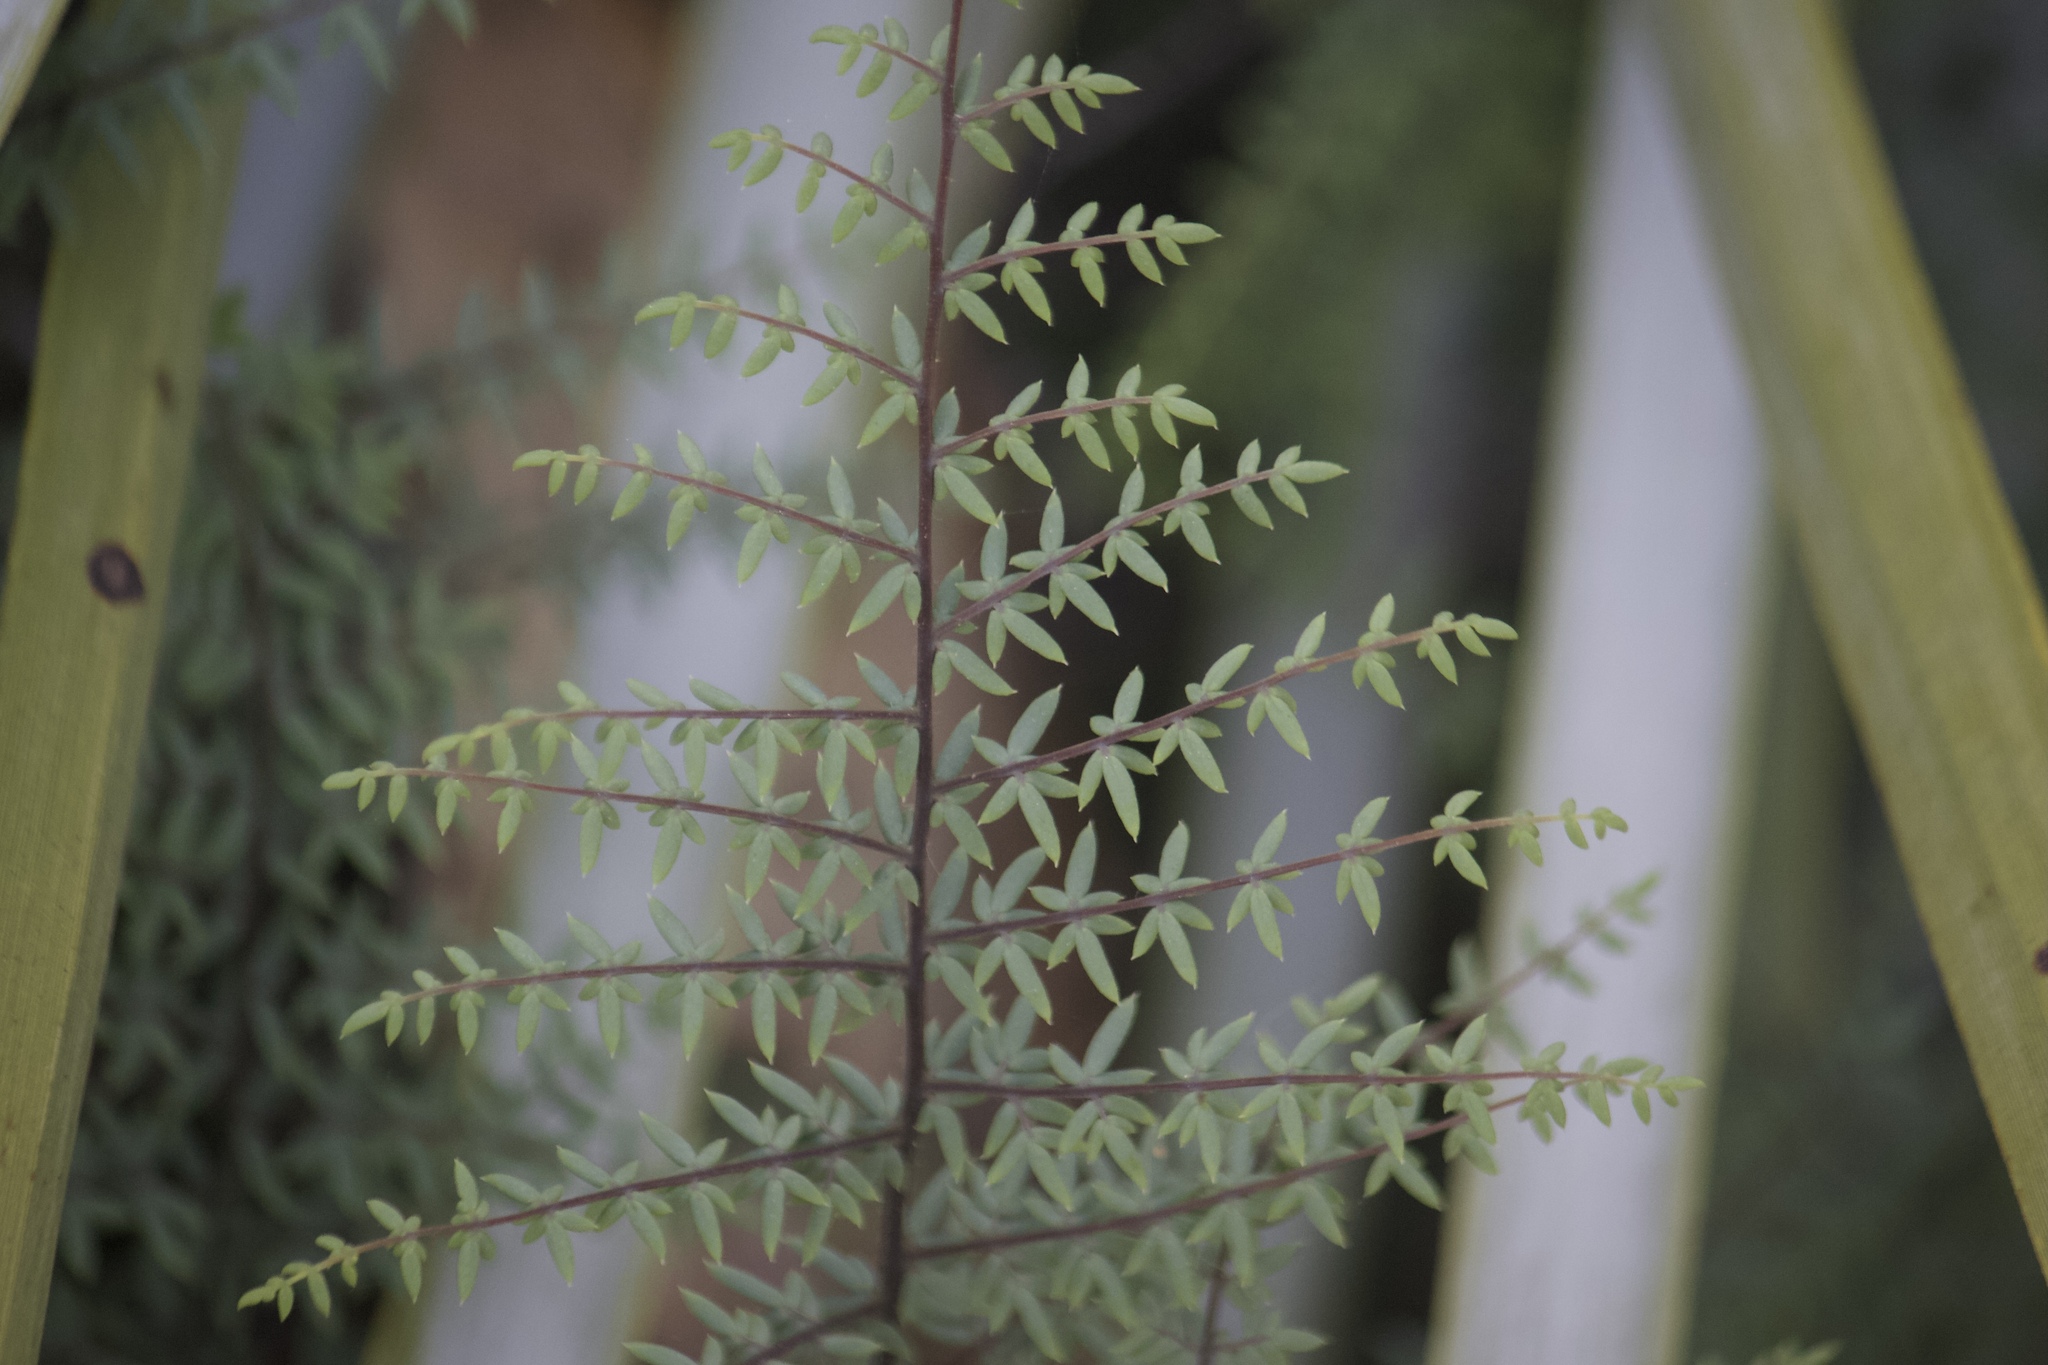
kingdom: Plantae
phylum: Tracheophyta
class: Polypodiopsida
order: Polypodiales
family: Pteridaceae
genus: Pellaea
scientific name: Pellaea mucronata
